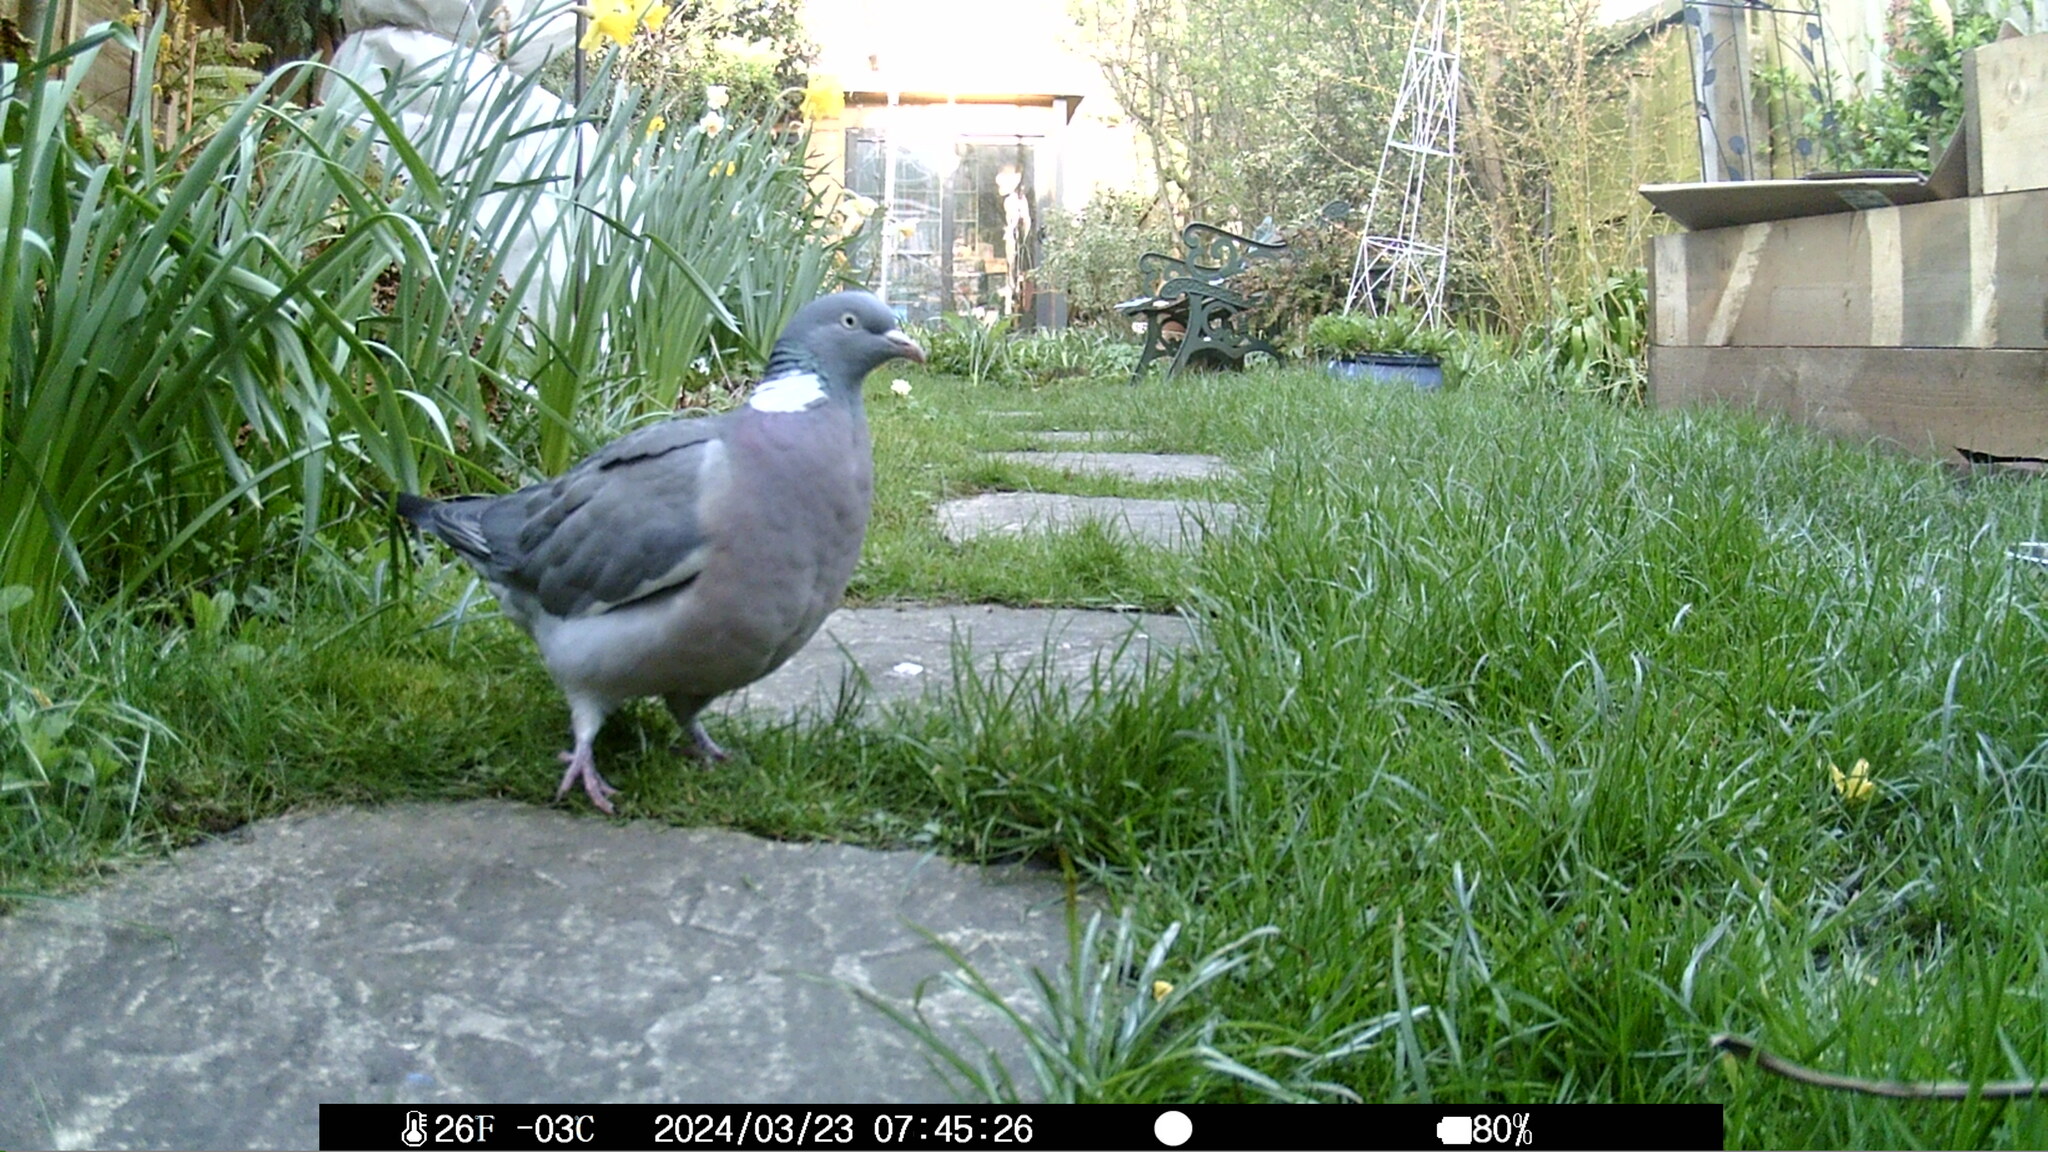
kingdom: Animalia
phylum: Chordata
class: Aves
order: Columbiformes
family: Columbidae
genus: Columba
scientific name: Columba palumbus
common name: Common wood pigeon
